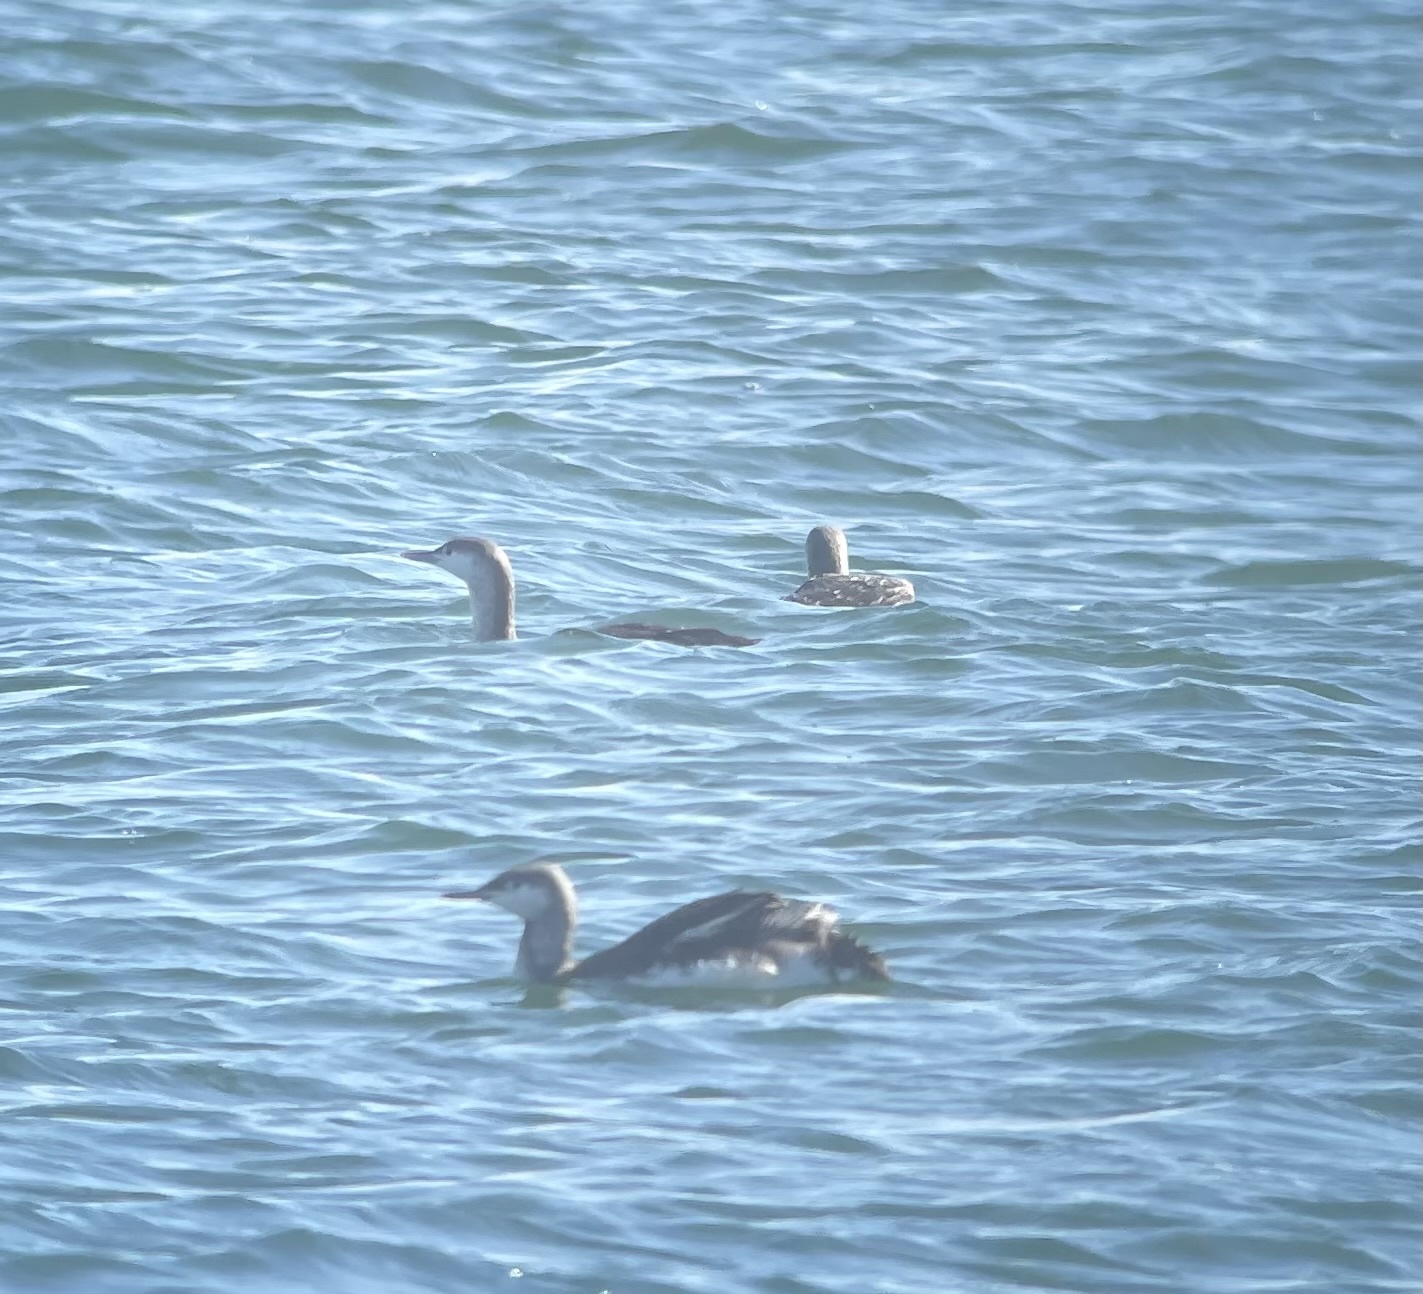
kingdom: Animalia
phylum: Chordata
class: Aves
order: Gaviiformes
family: Gaviidae
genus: Gavia
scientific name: Gavia stellata
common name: Red-throated loon
